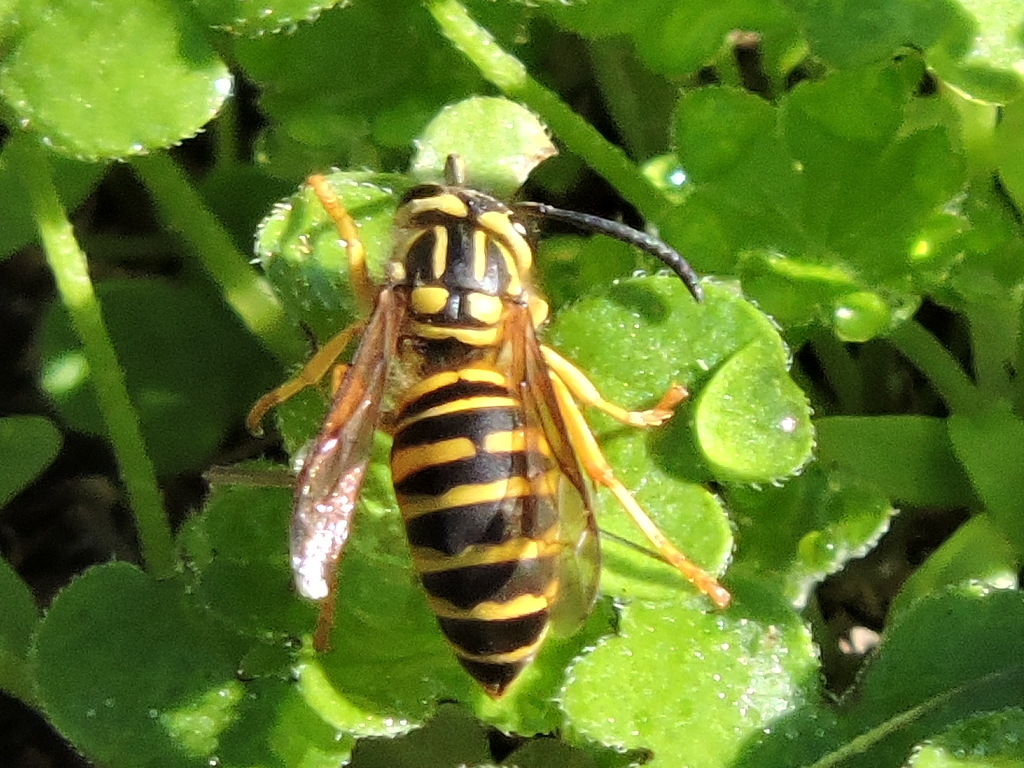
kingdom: Animalia
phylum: Arthropoda
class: Insecta
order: Hymenoptera
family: Vespidae
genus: Vespula
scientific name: Vespula squamosa
